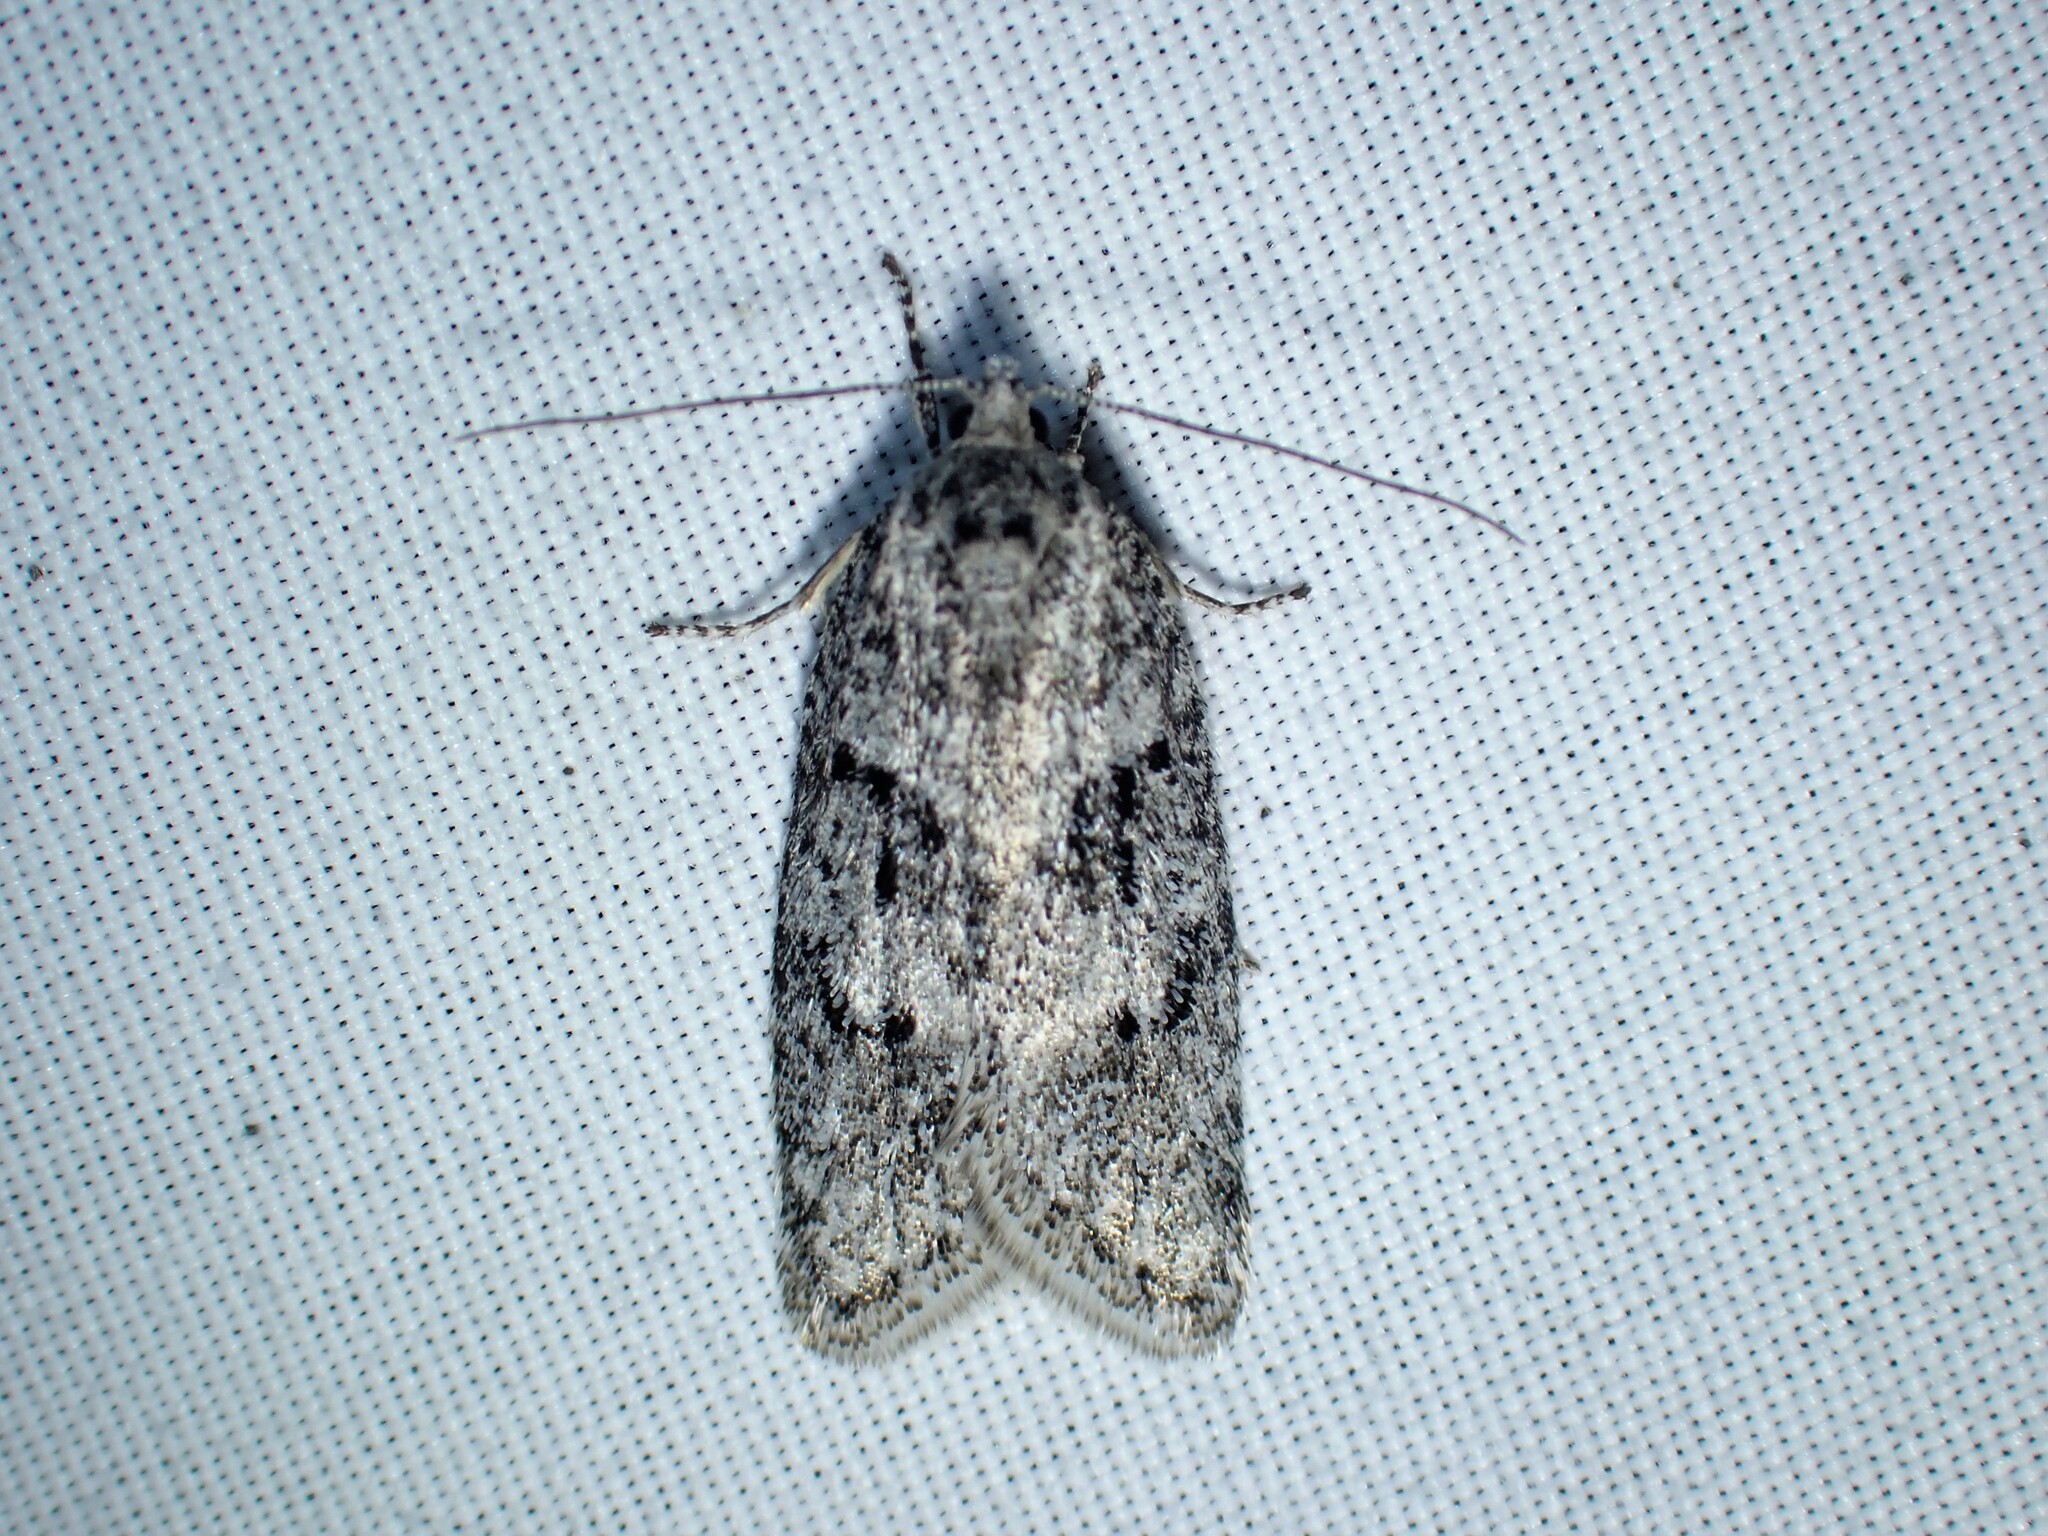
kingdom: Animalia
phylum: Arthropoda
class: Insecta
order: Lepidoptera
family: Depressariidae
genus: Semioscopis
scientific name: Semioscopis inornata
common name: Poplar micromoth
